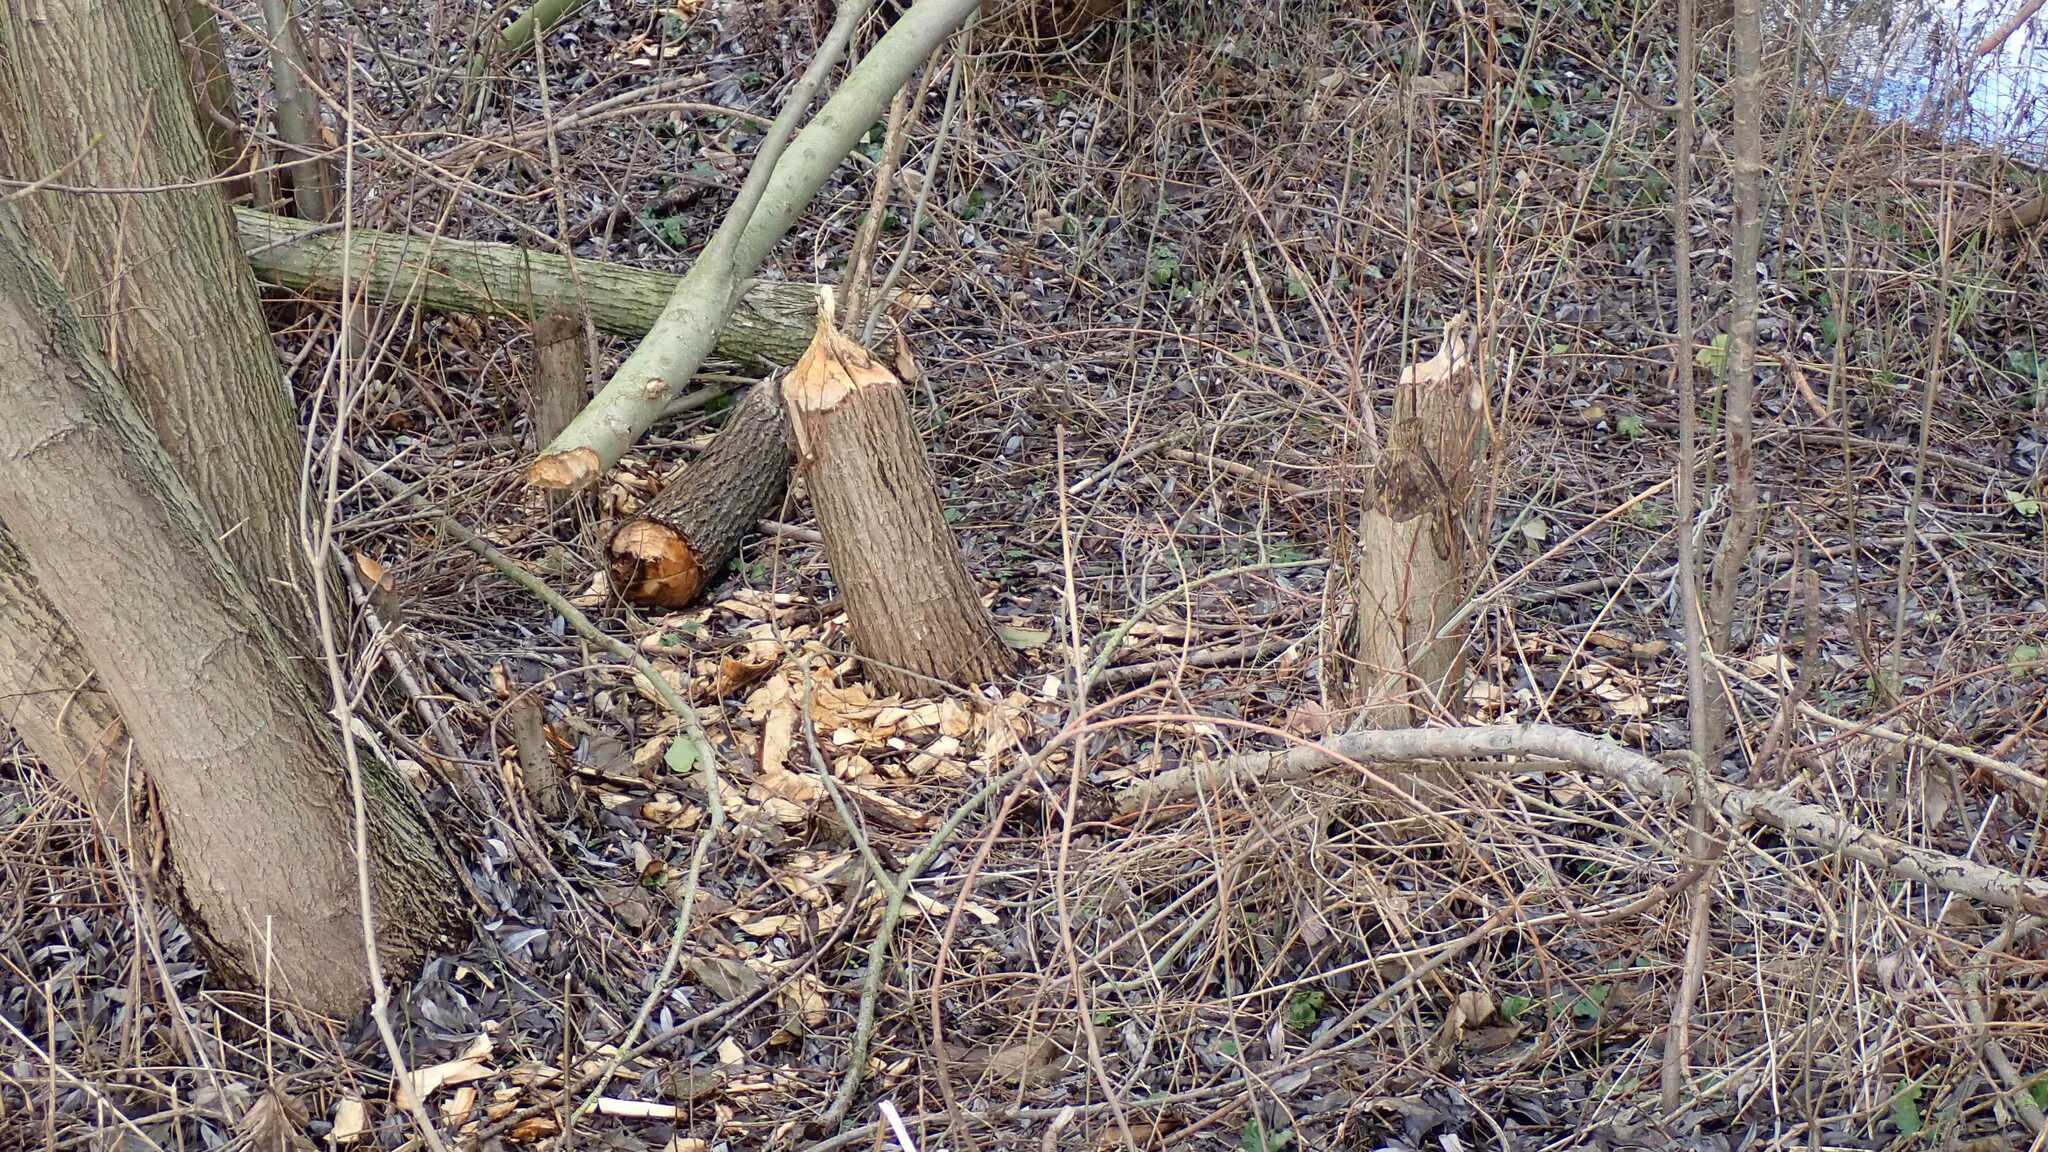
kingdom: Animalia
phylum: Chordata
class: Mammalia
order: Rodentia
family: Castoridae
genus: Castor
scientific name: Castor fiber
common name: Eurasian beaver
